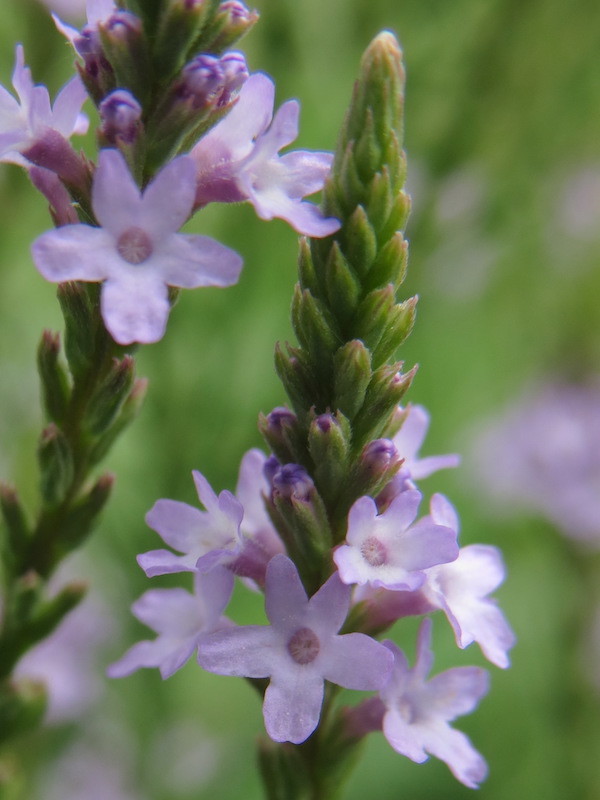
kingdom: Plantae
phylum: Tracheophyta
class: Magnoliopsida
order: Lamiales
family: Verbenaceae
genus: Verbena
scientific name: Verbena hastata
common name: American blue vervain
